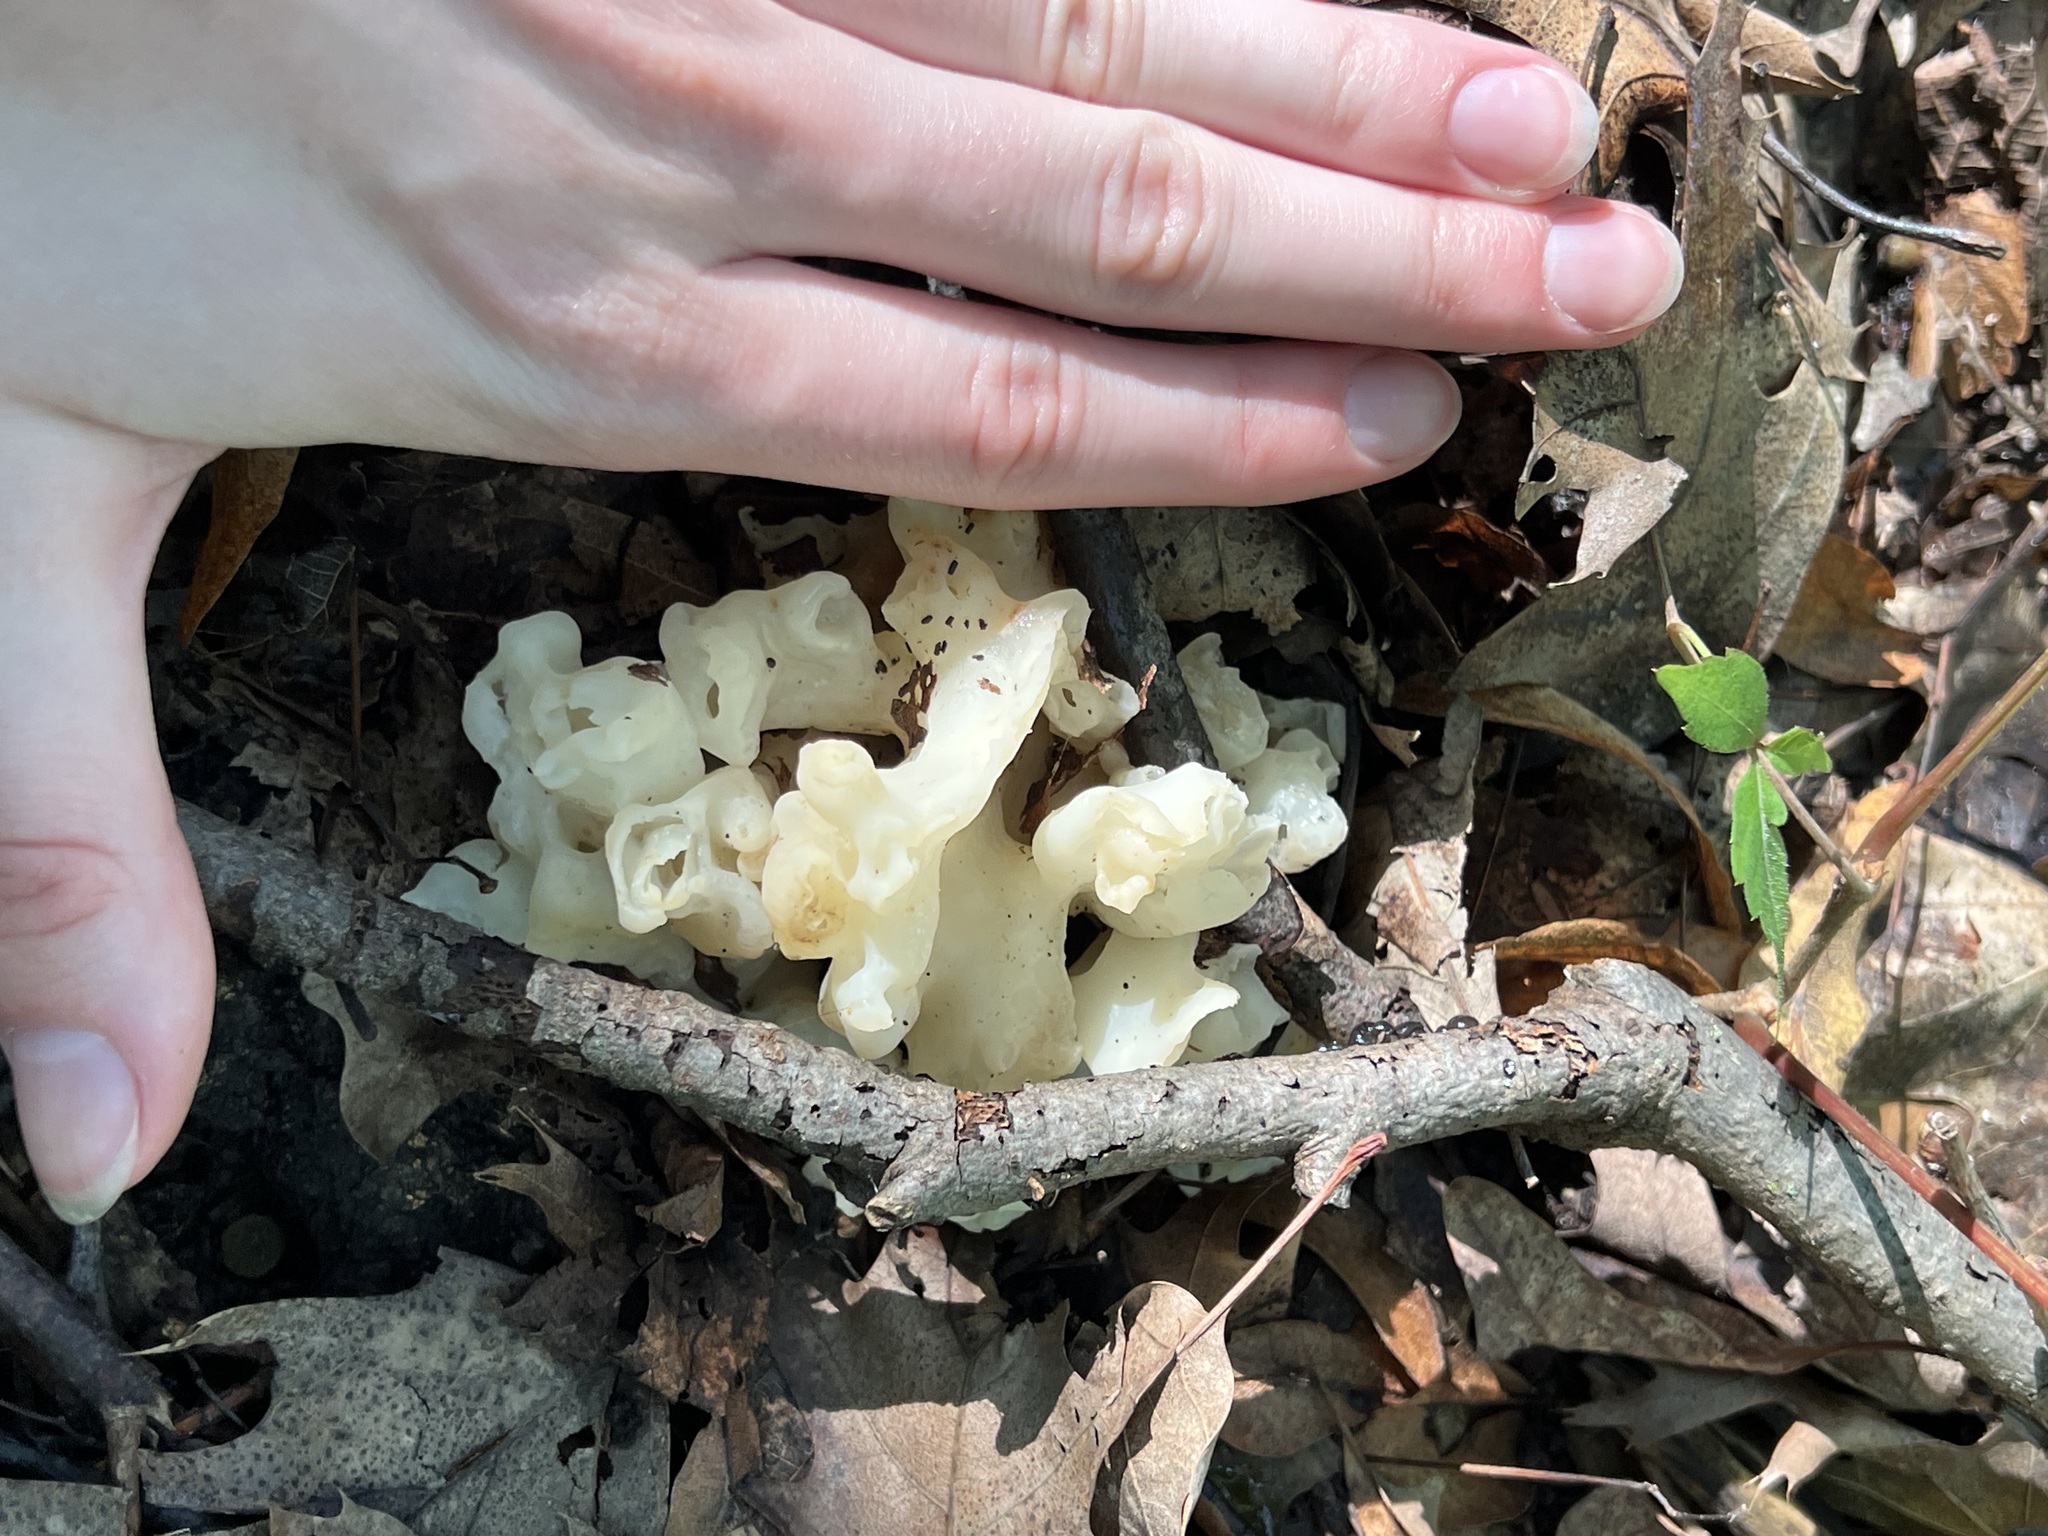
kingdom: Fungi
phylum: Basidiomycota
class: Agaricomycetes
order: Sebacinales
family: Sebacinaceae
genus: Sebacina
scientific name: Sebacina sparassoidea
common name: White coral jelly fungus
